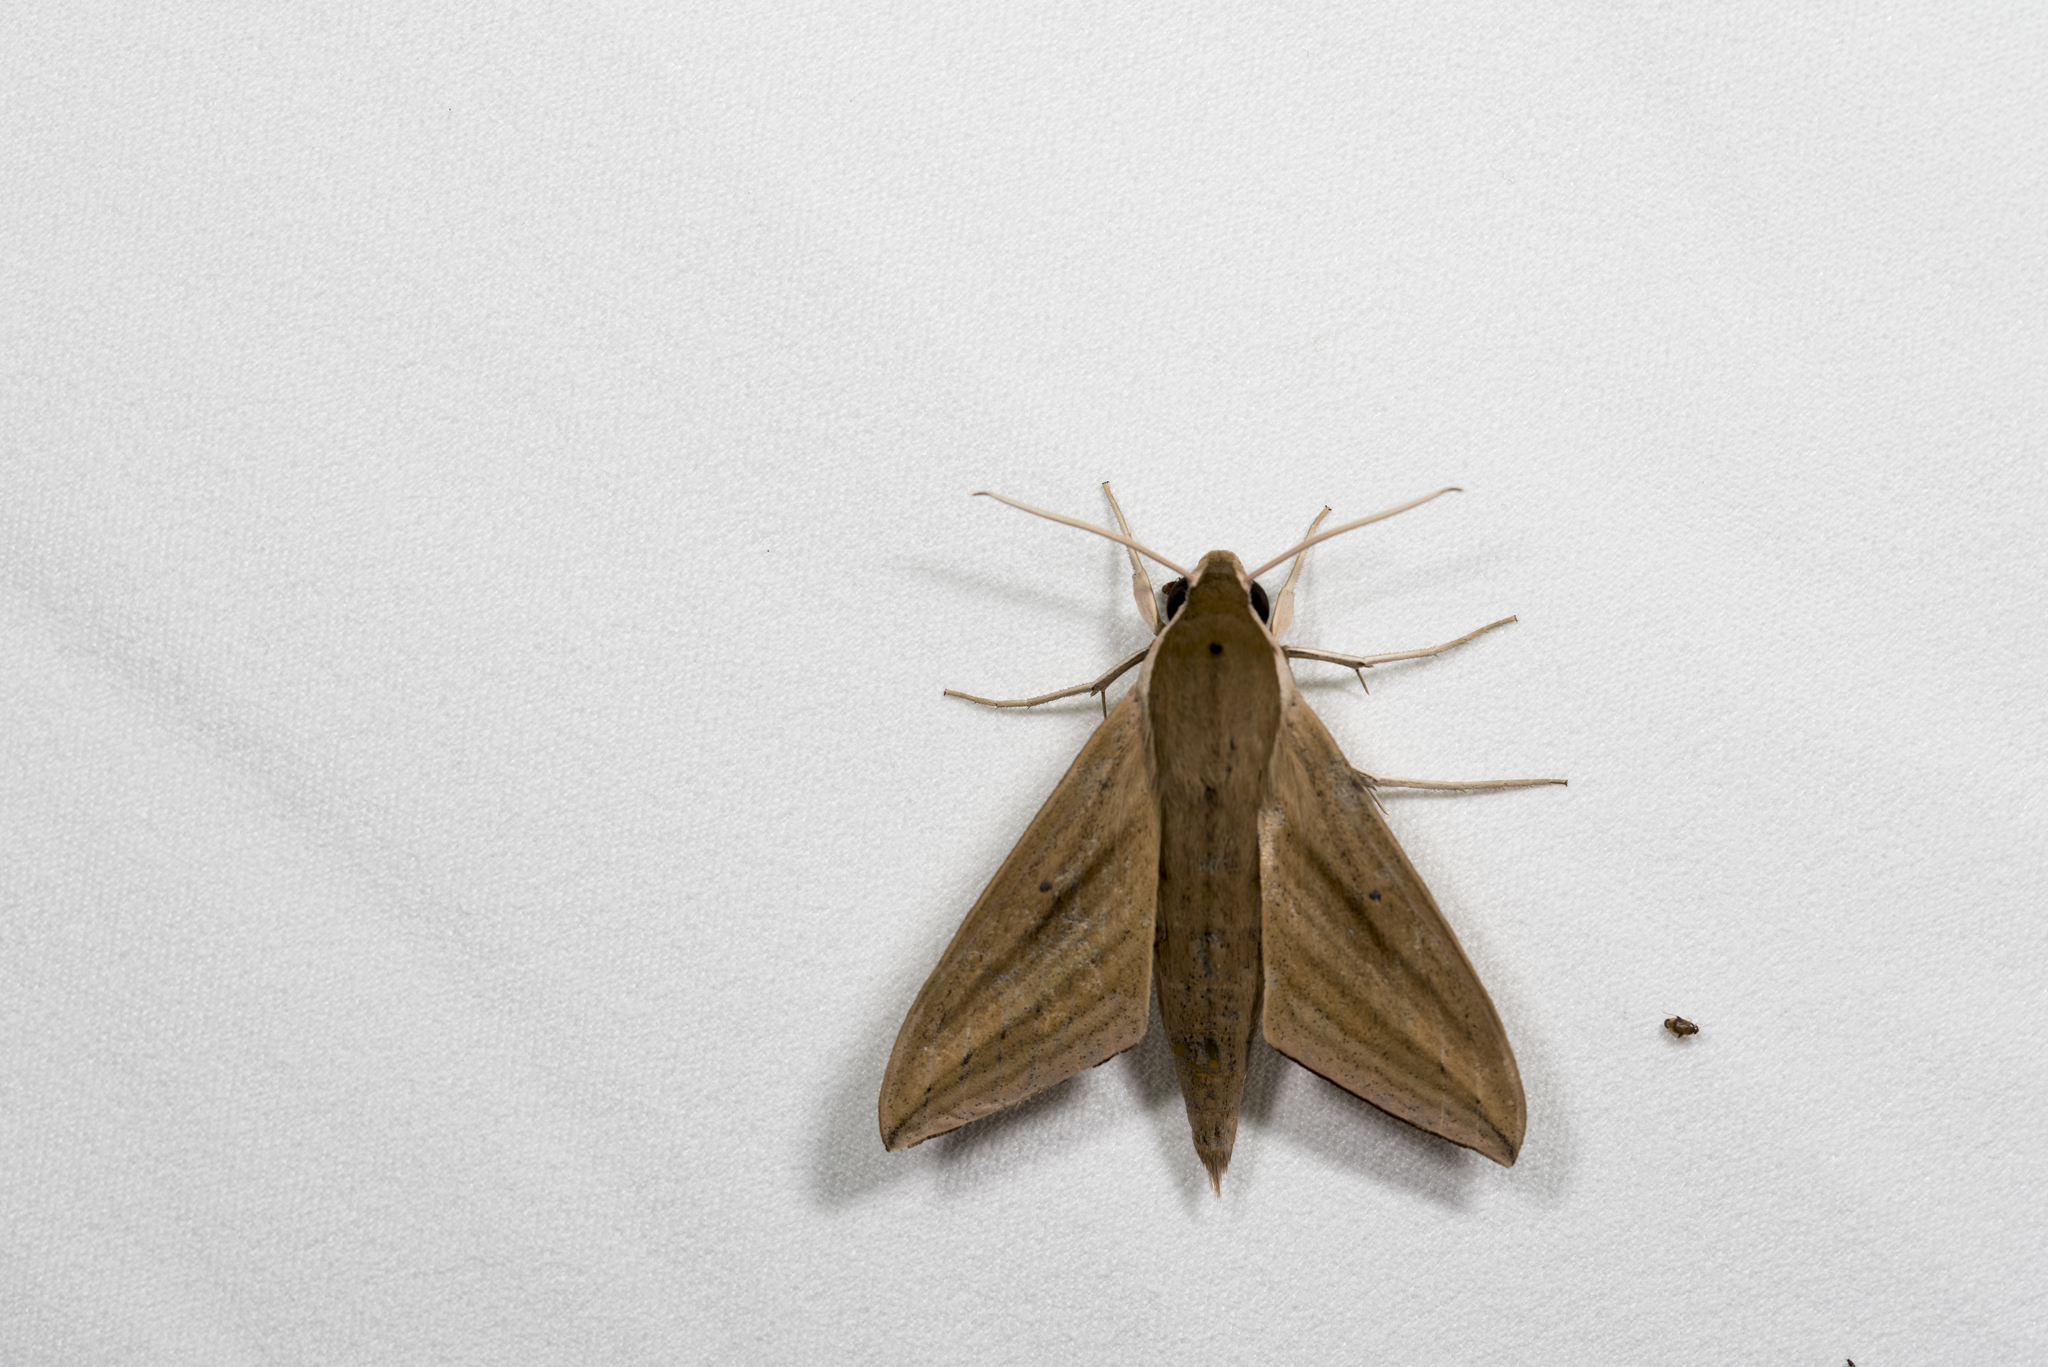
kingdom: Animalia
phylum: Arthropoda
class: Insecta
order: Lepidoptera
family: Sphingidae
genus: Theretra
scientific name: Theretra rhesus
